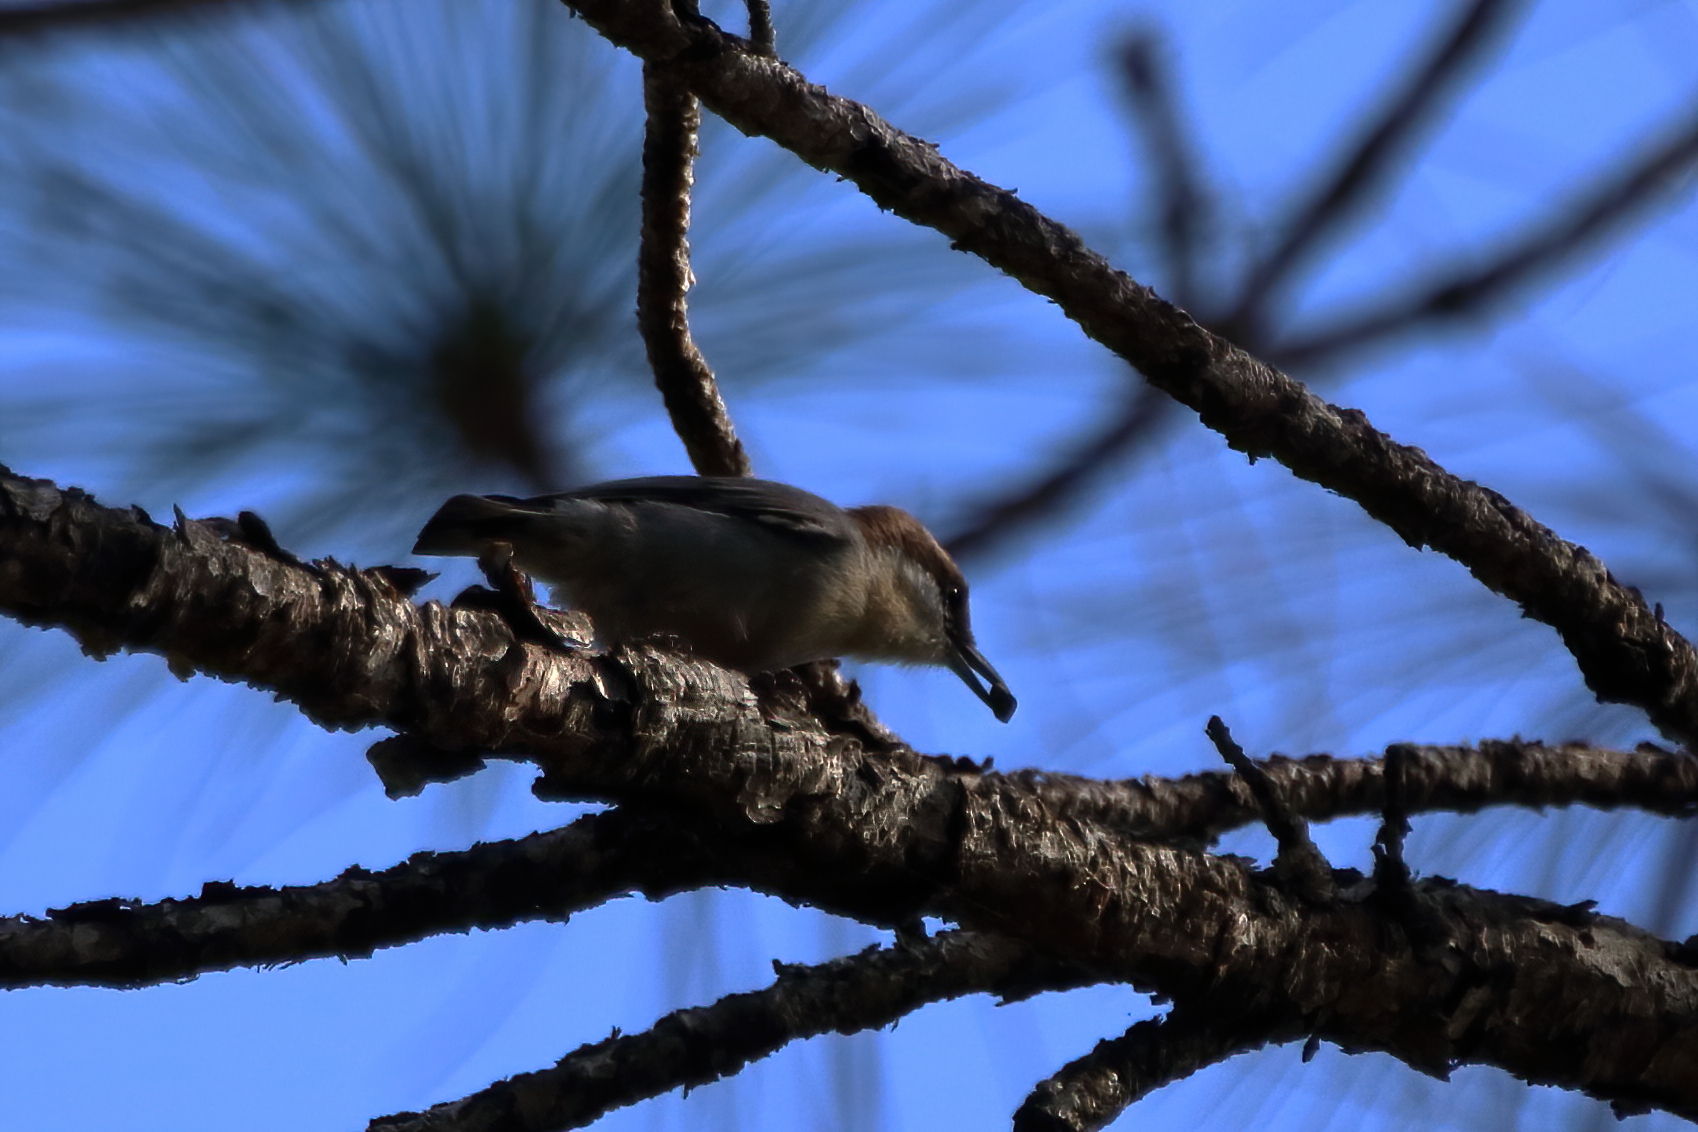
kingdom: Animalia
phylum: Chordata
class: Aves
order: Passeriformes
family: Sittidae
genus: Sitta
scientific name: Sitta pusilla
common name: Brown-headed nuthatch
